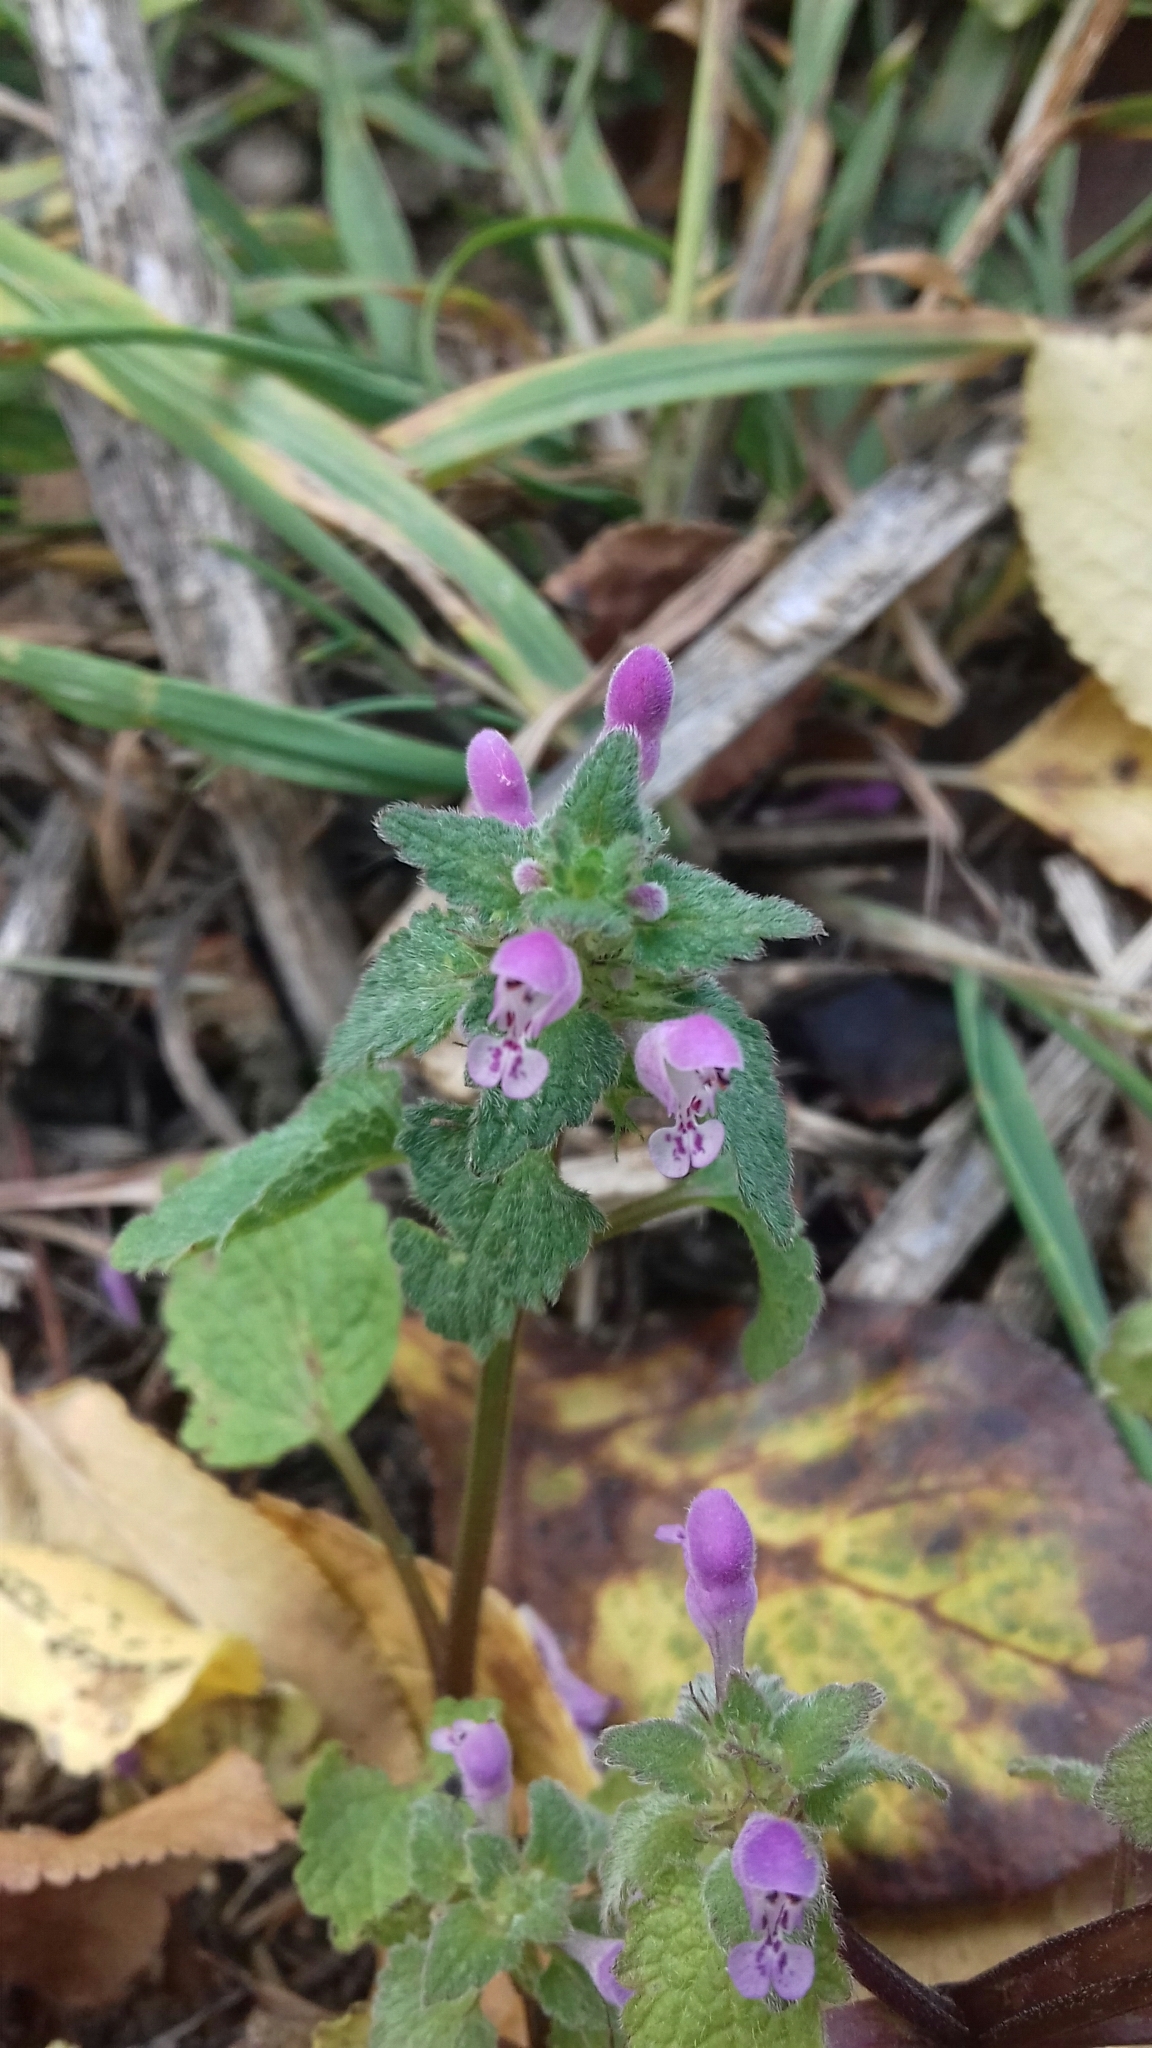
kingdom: Plantae
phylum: Tracheophyta
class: Magnoliopsida
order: Lamiales
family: Lamiaceae
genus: Lamium
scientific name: Lamium purpureum
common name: Red dead-nettle
